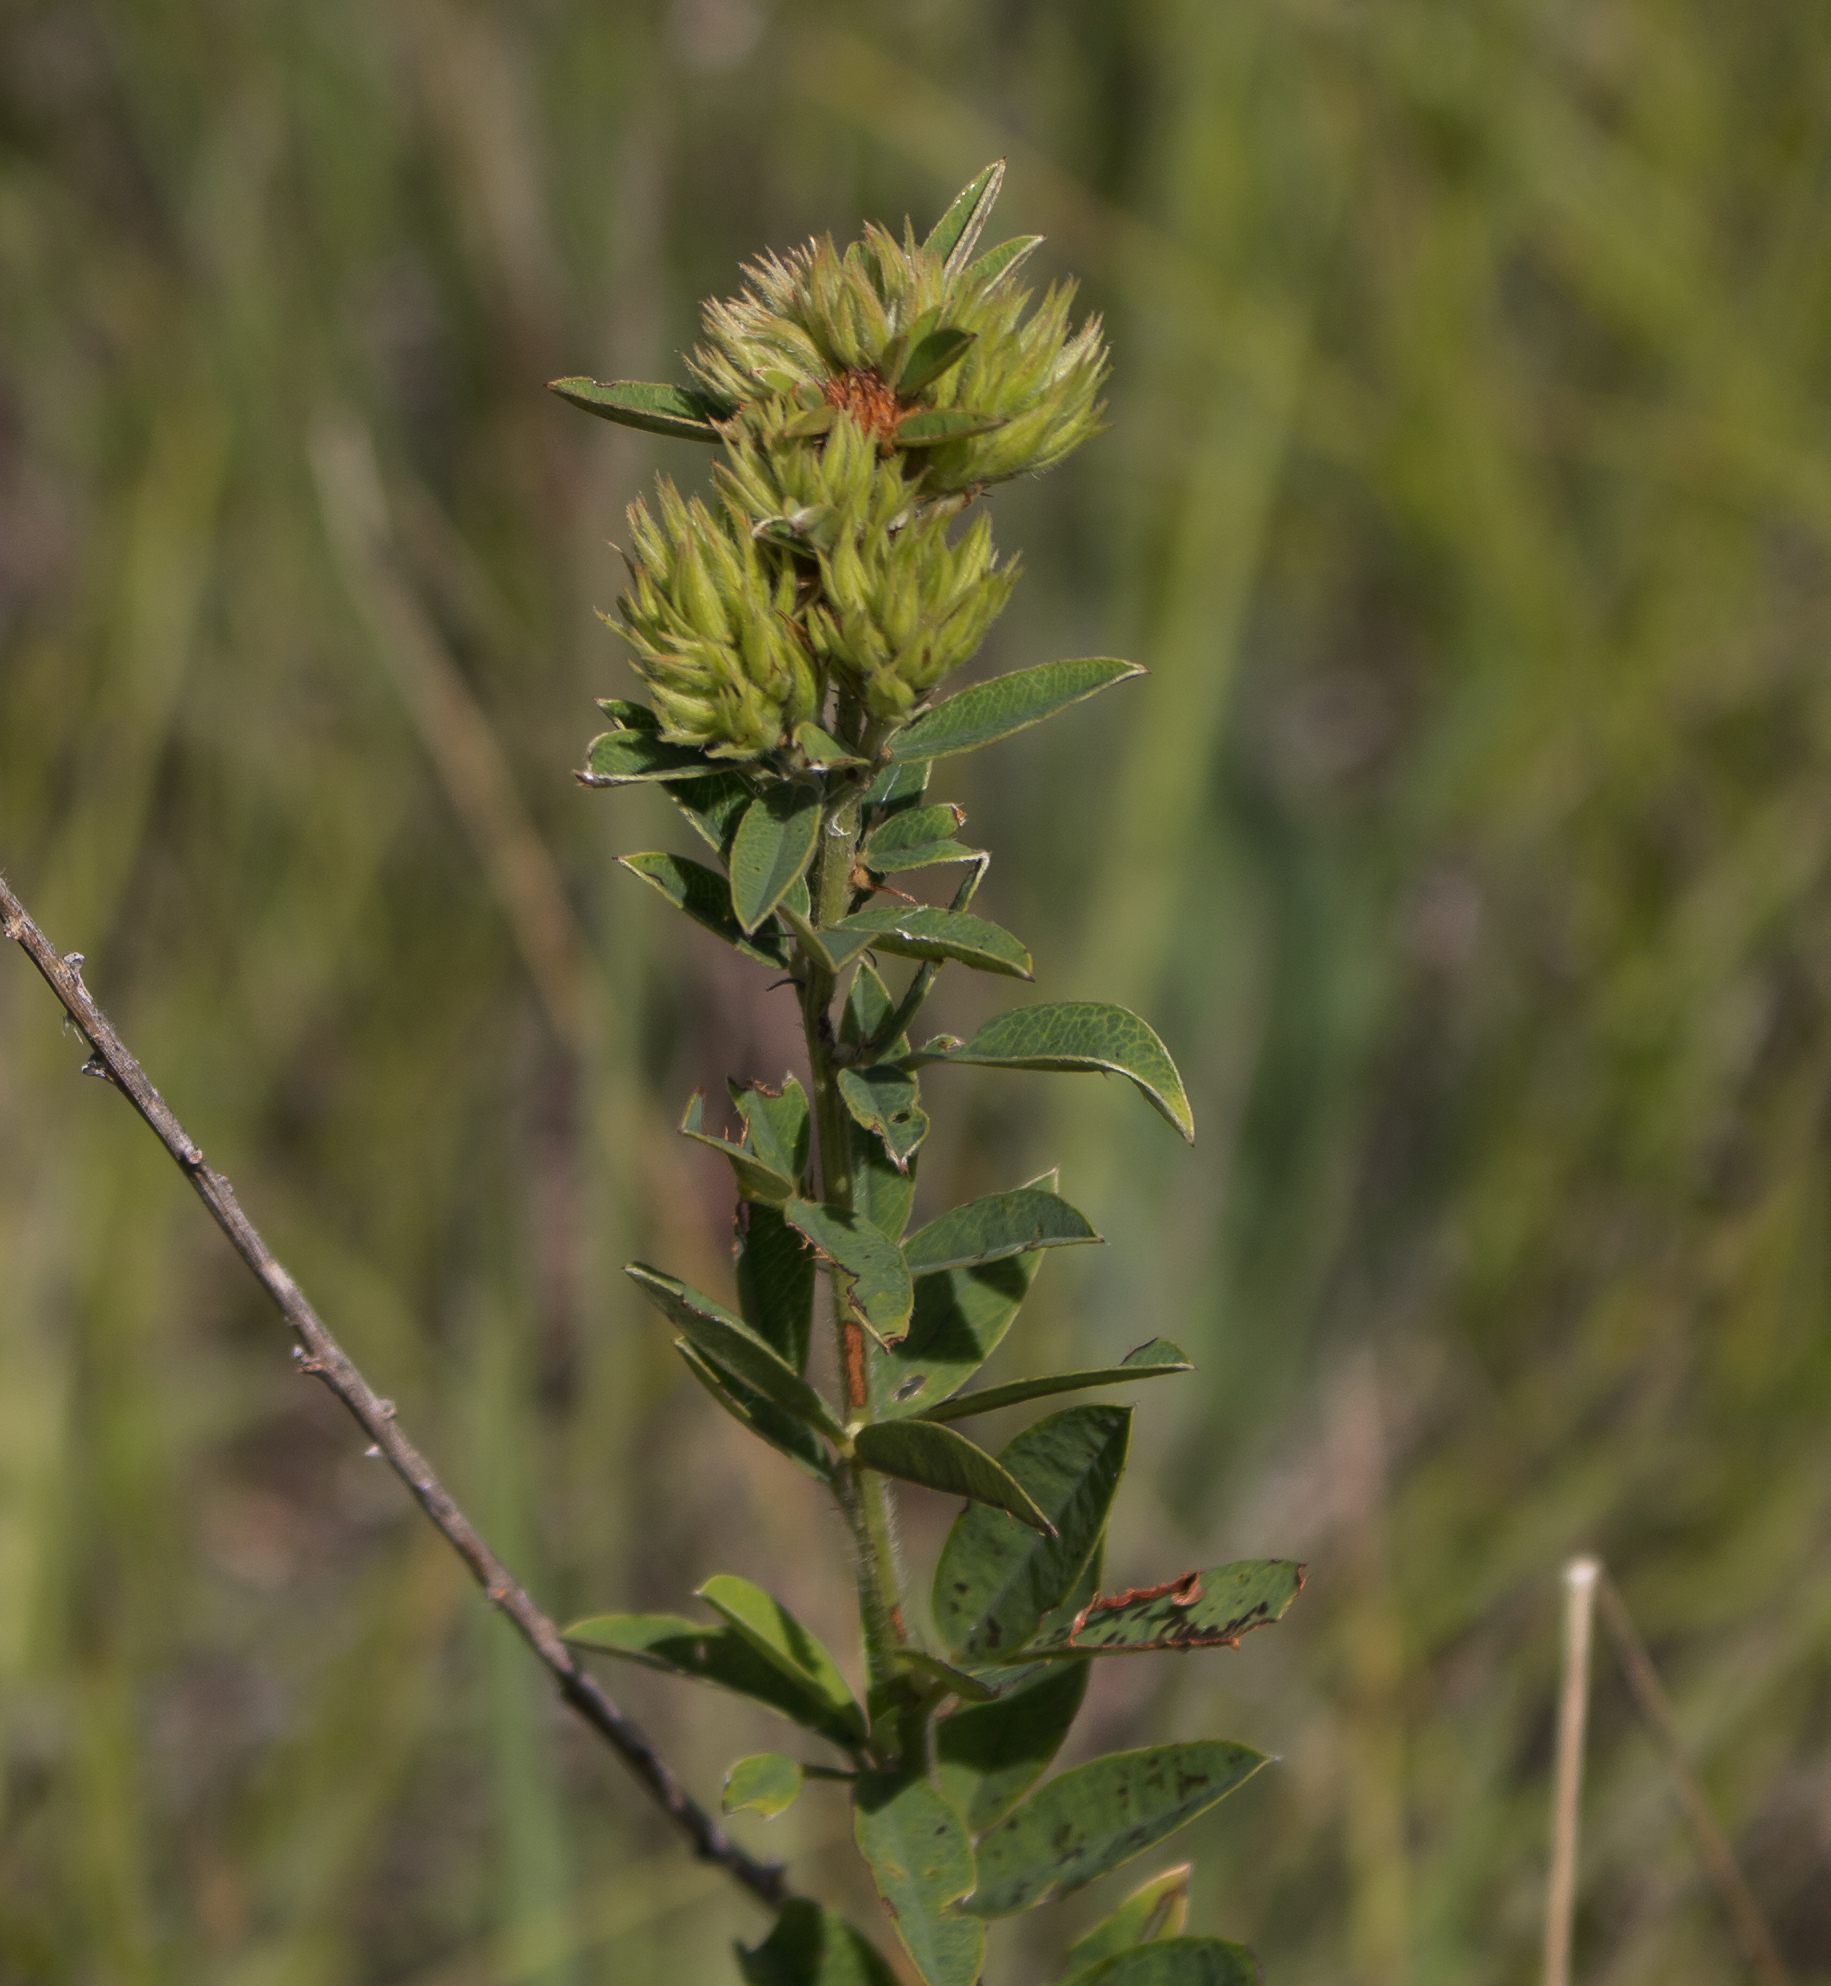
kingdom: Plantae
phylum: Tracheophyta
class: Magnoliopsida
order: Fabales
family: Fabaceae
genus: Lespedeza
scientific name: Lespedeza capitata
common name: Dusty clover
